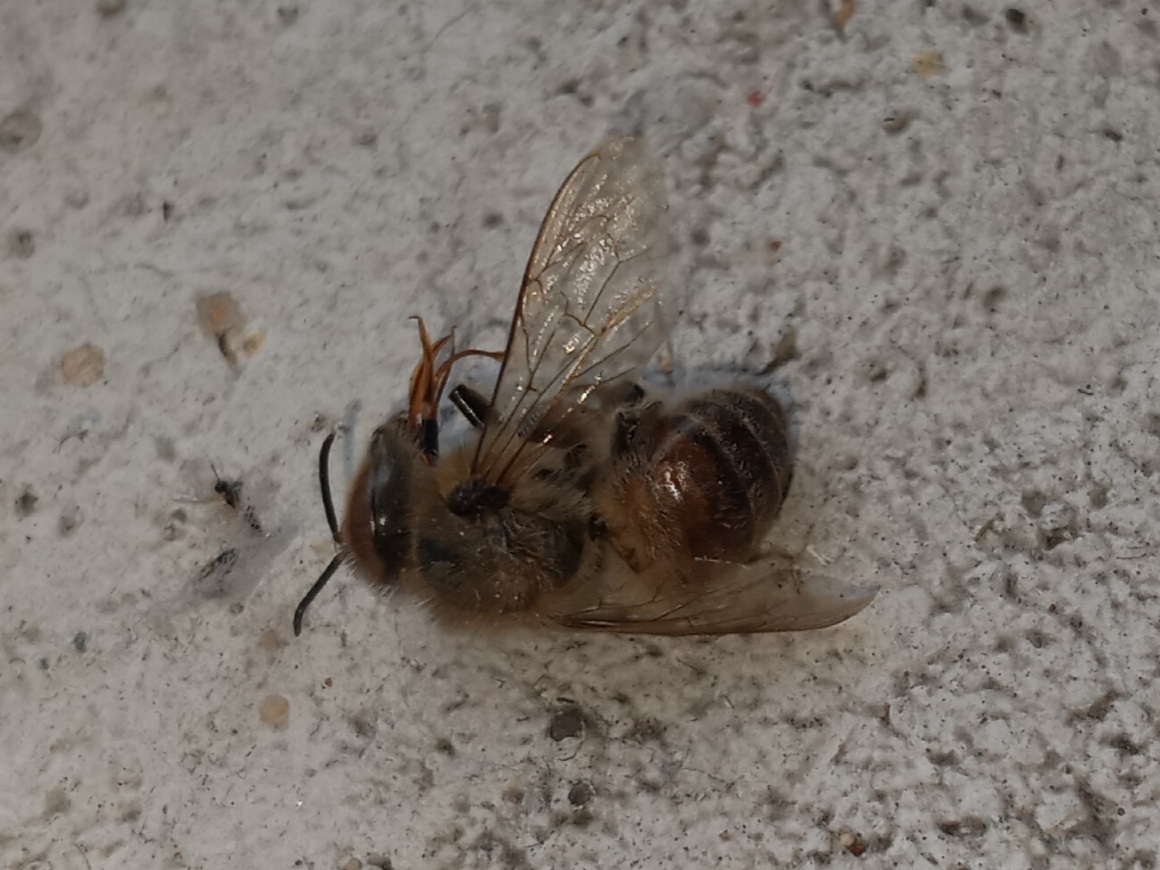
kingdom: Animalia
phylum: Arthropoda
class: Insecta
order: Hymenoptera
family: Apidae
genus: Apis
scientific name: Apis mellifera
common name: Honey bee
